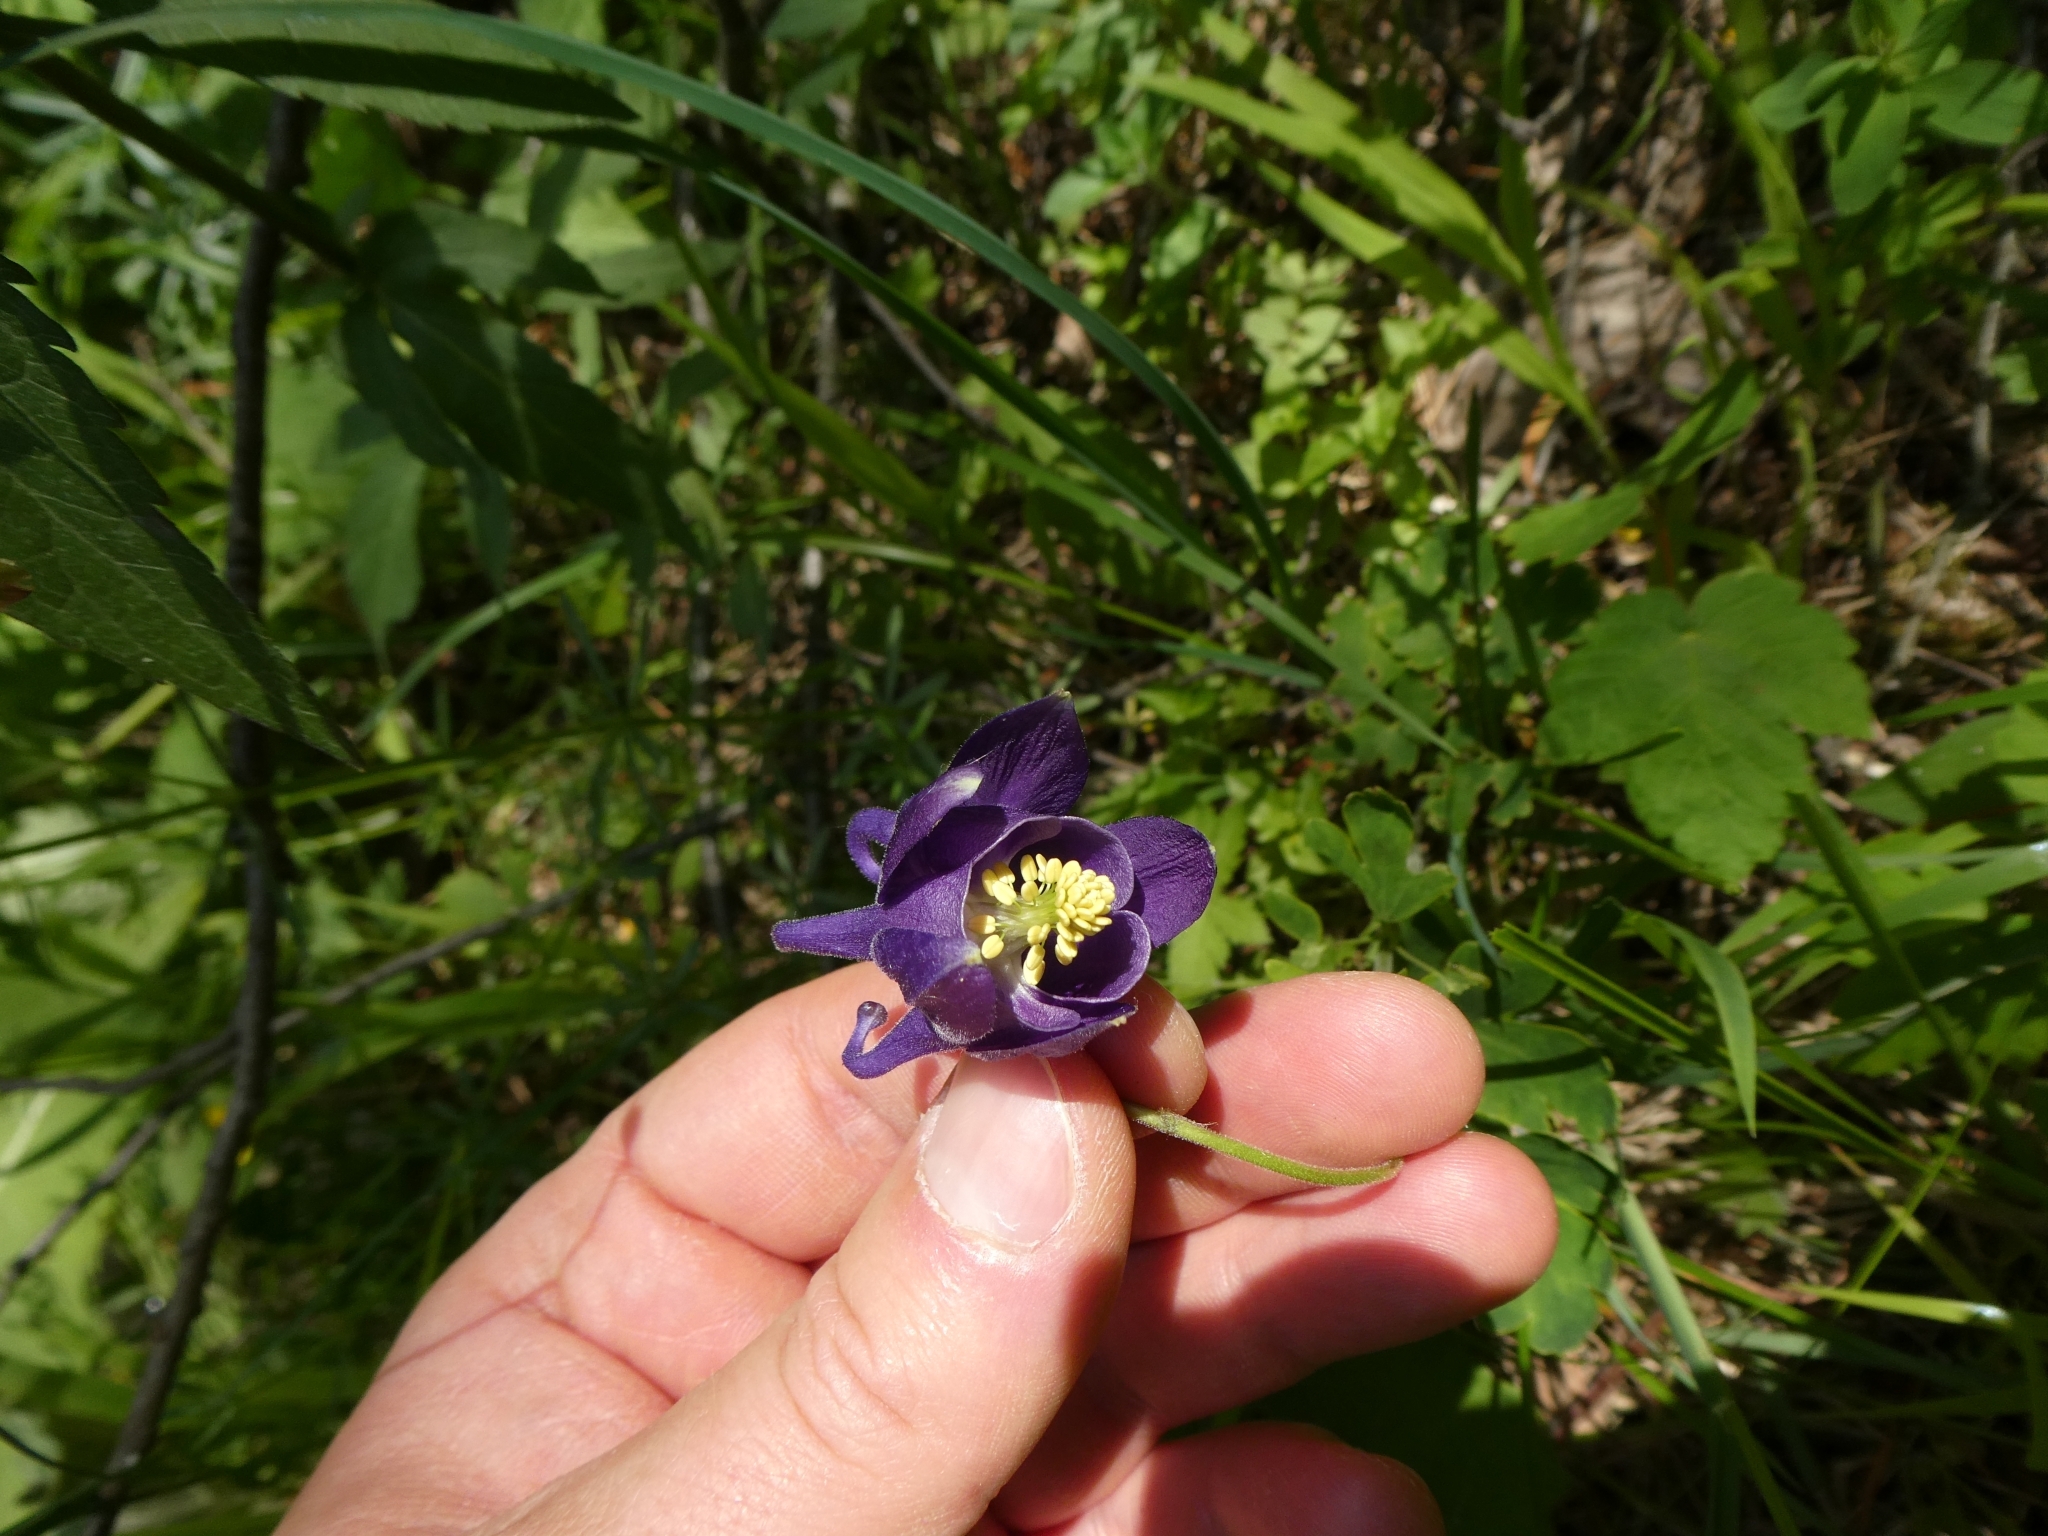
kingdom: Plantae
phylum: Tracheophyta
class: Magnoliopsida
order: Ranunculales
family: Ranunculaceae
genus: Aquilegia
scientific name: Aquilegia vulgaris
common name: Columbine
